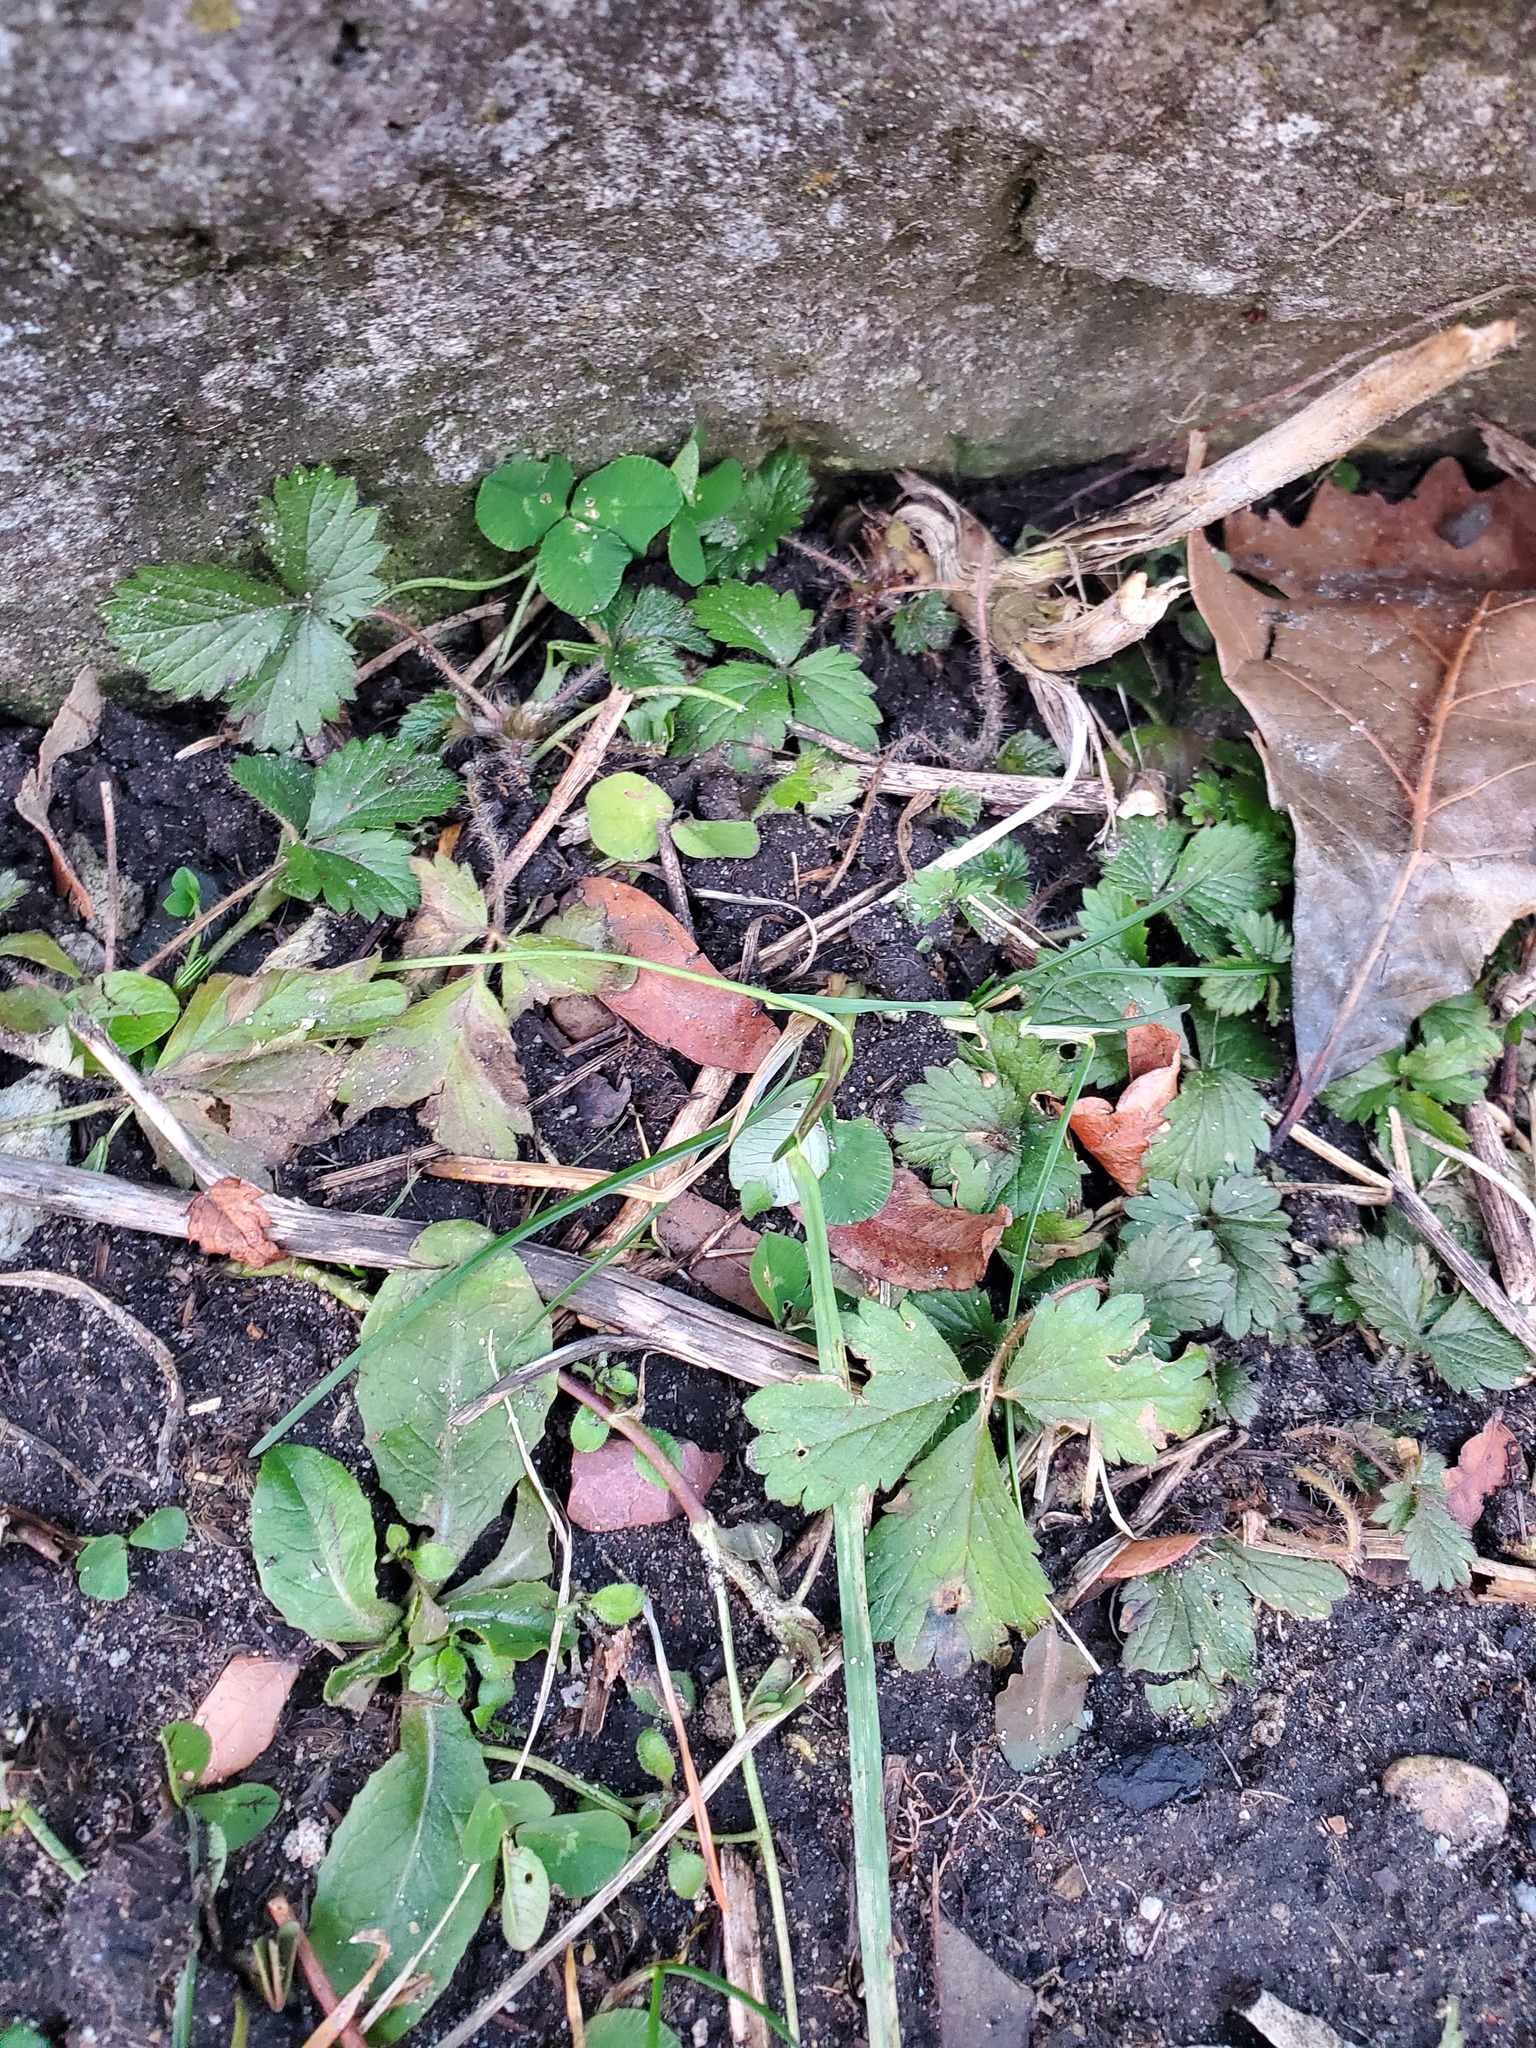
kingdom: Plantae
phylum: Tracheophyta
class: Magnoliopsida
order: Rosales
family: Rosaceae
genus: Potentilla
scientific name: Potentilla indica
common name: Yellow-flowered strawberry
